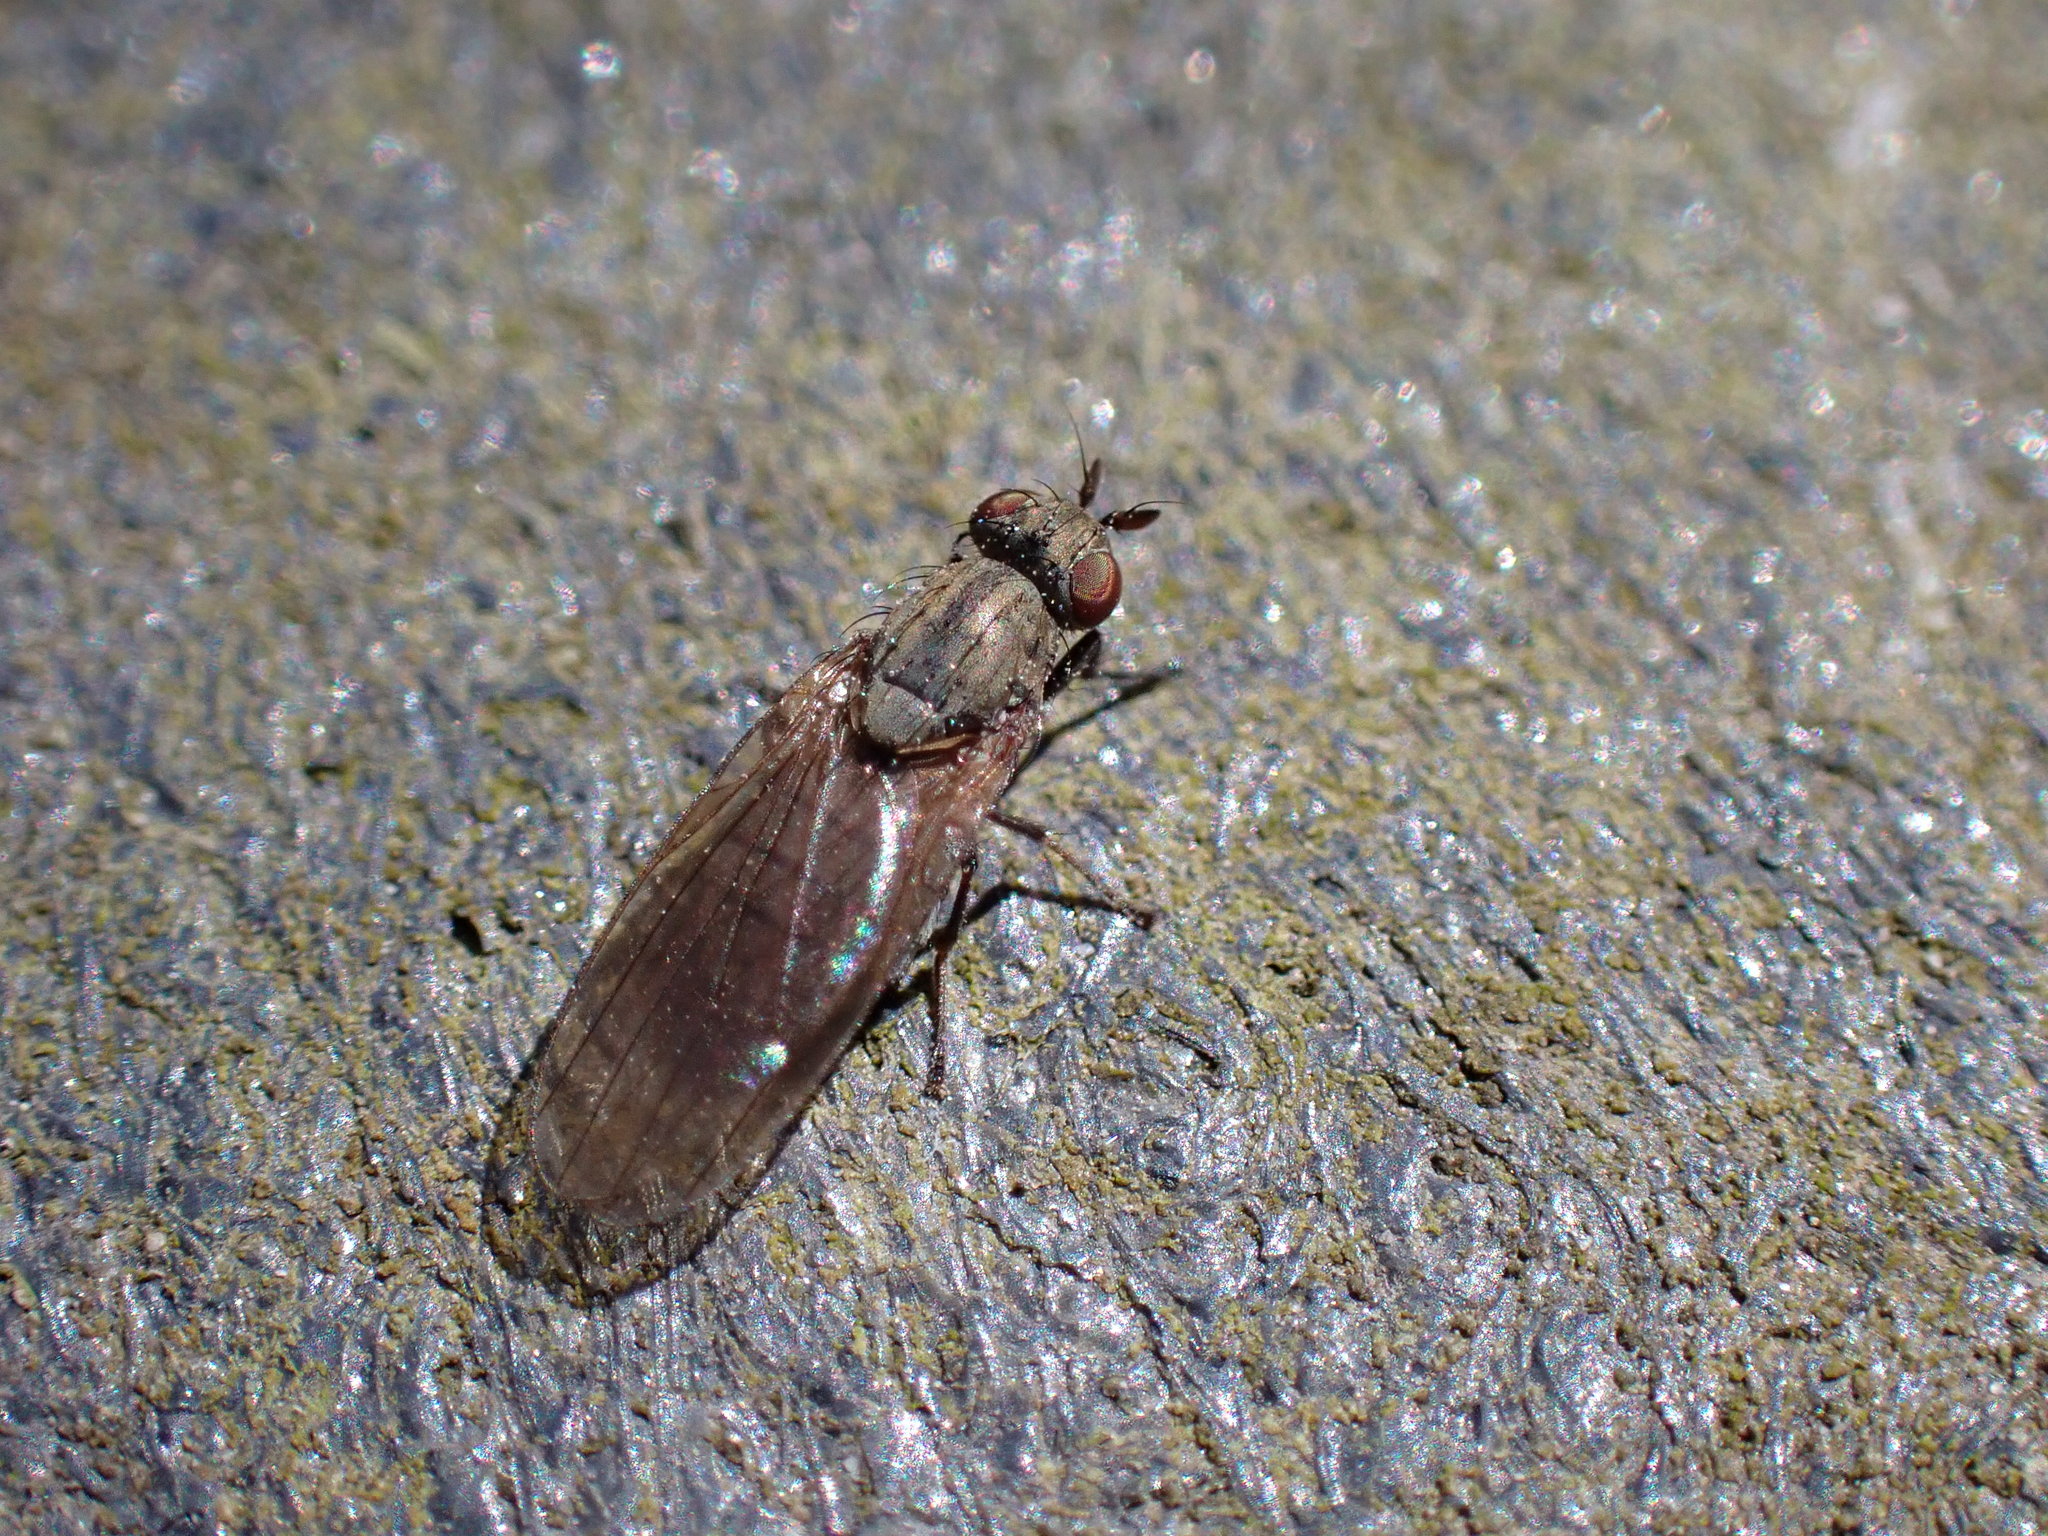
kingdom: Animalia
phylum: Arthropoda
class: Insecta
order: Diptera
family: Lauxaniidae
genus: Sapromyza
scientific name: Sapromyza brachysoma
